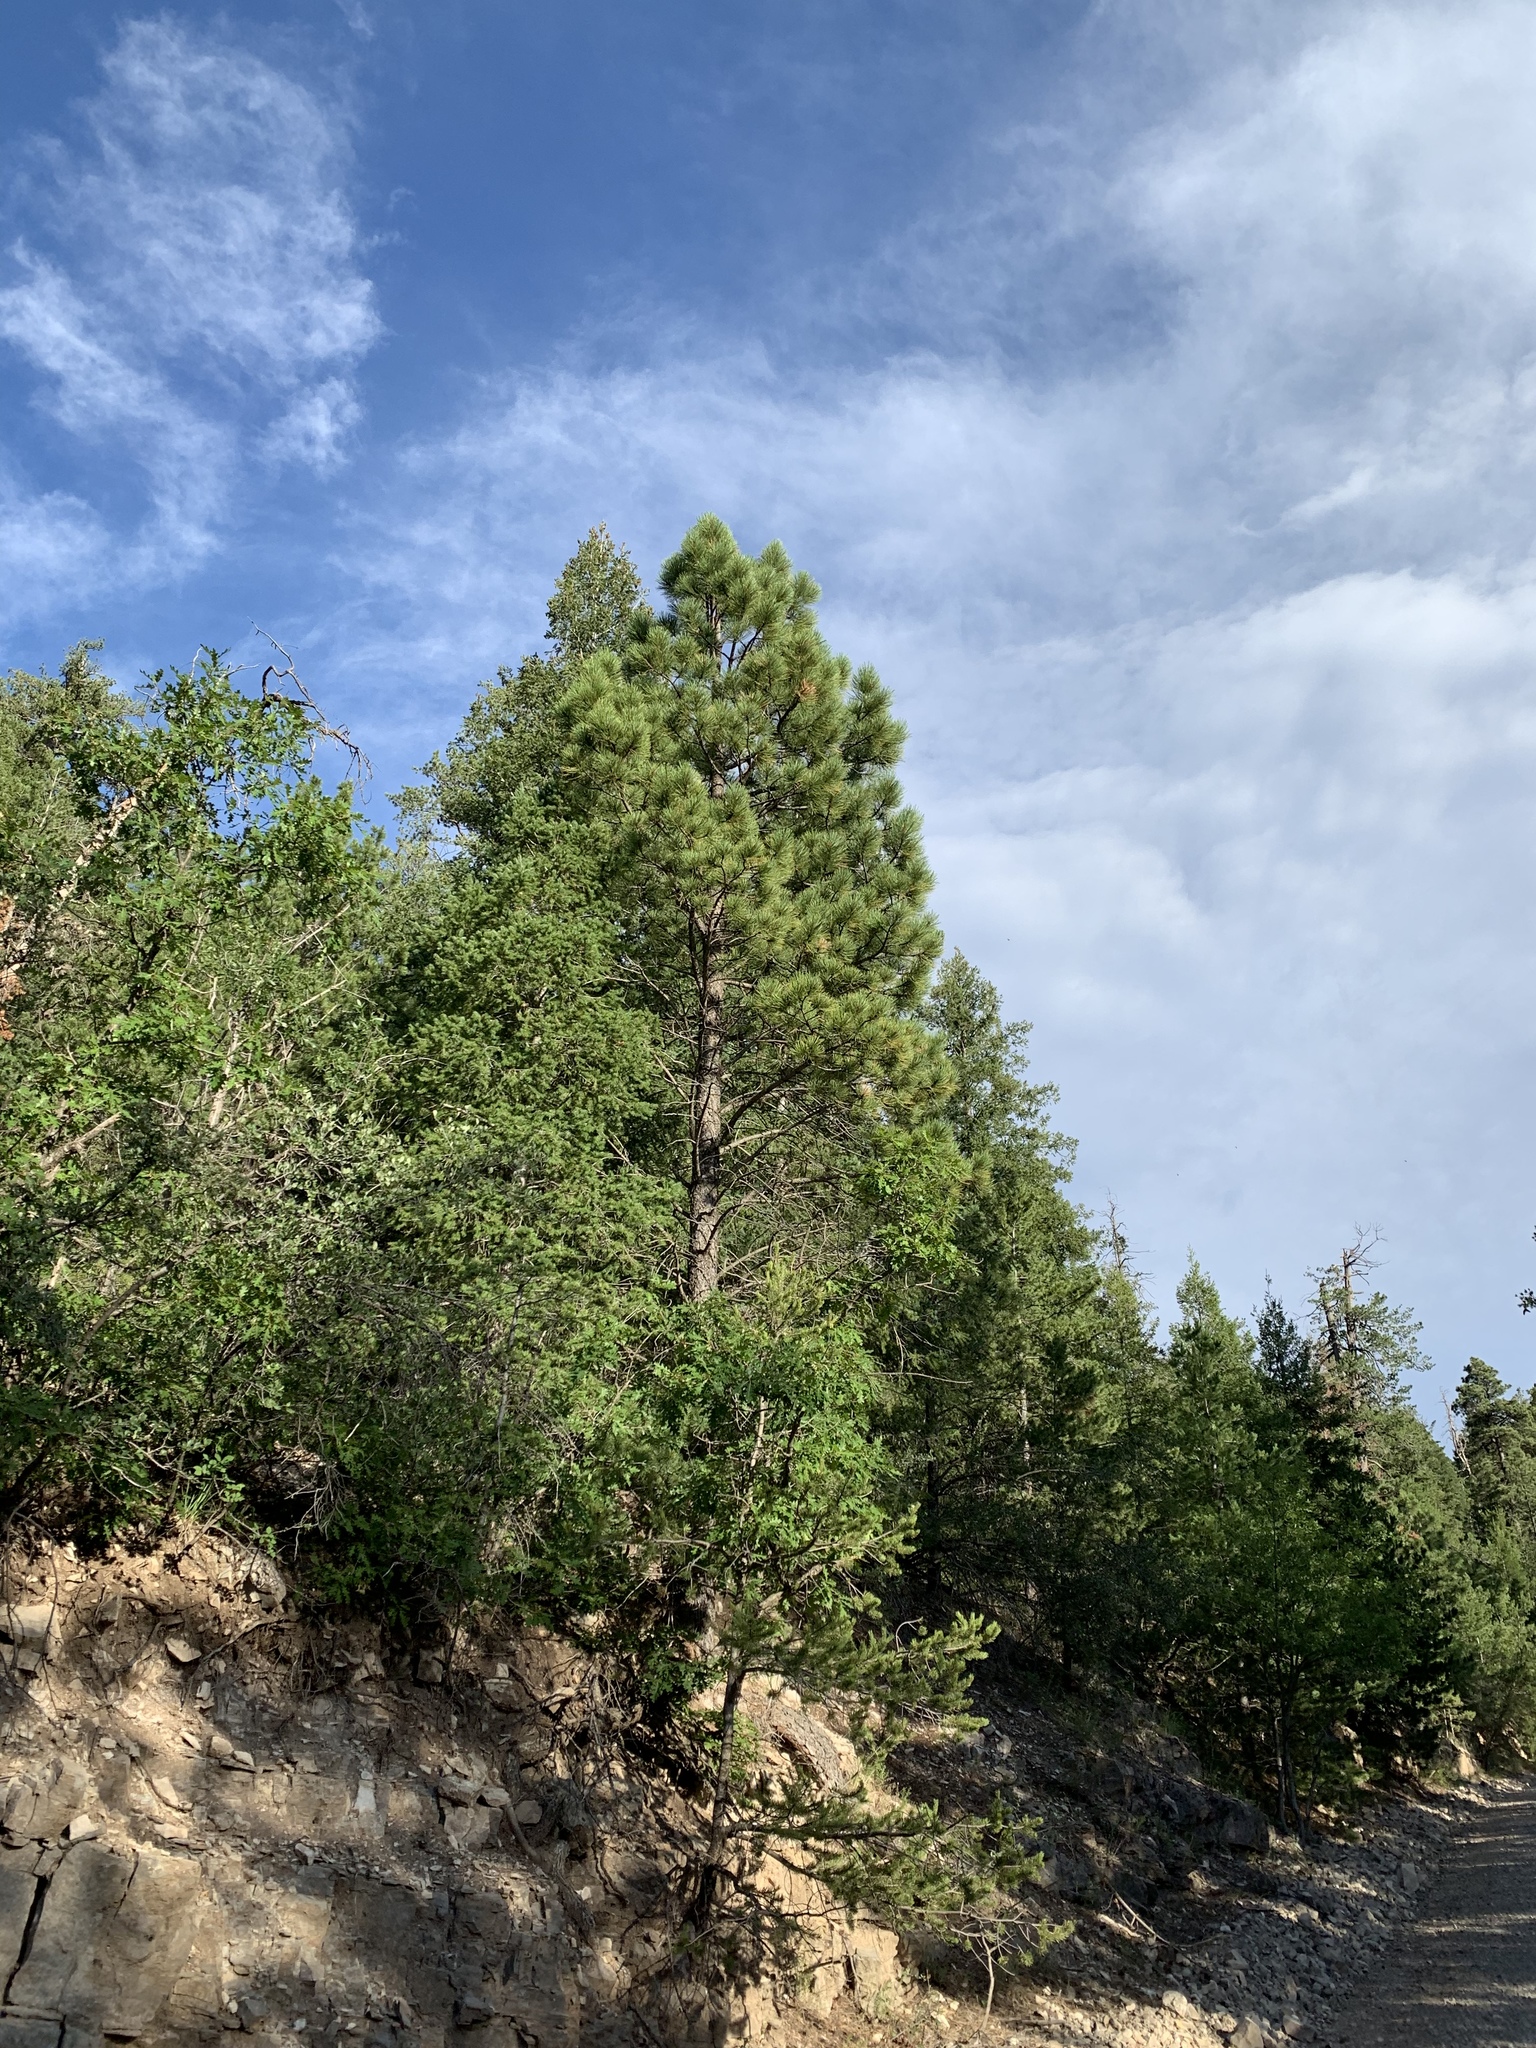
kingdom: Plantae
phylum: Tracheophyta
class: Pinopsida
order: Pinales
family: Pinaceae
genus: Pinus
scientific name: Pinus ponderosa
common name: Western yellow-pine
